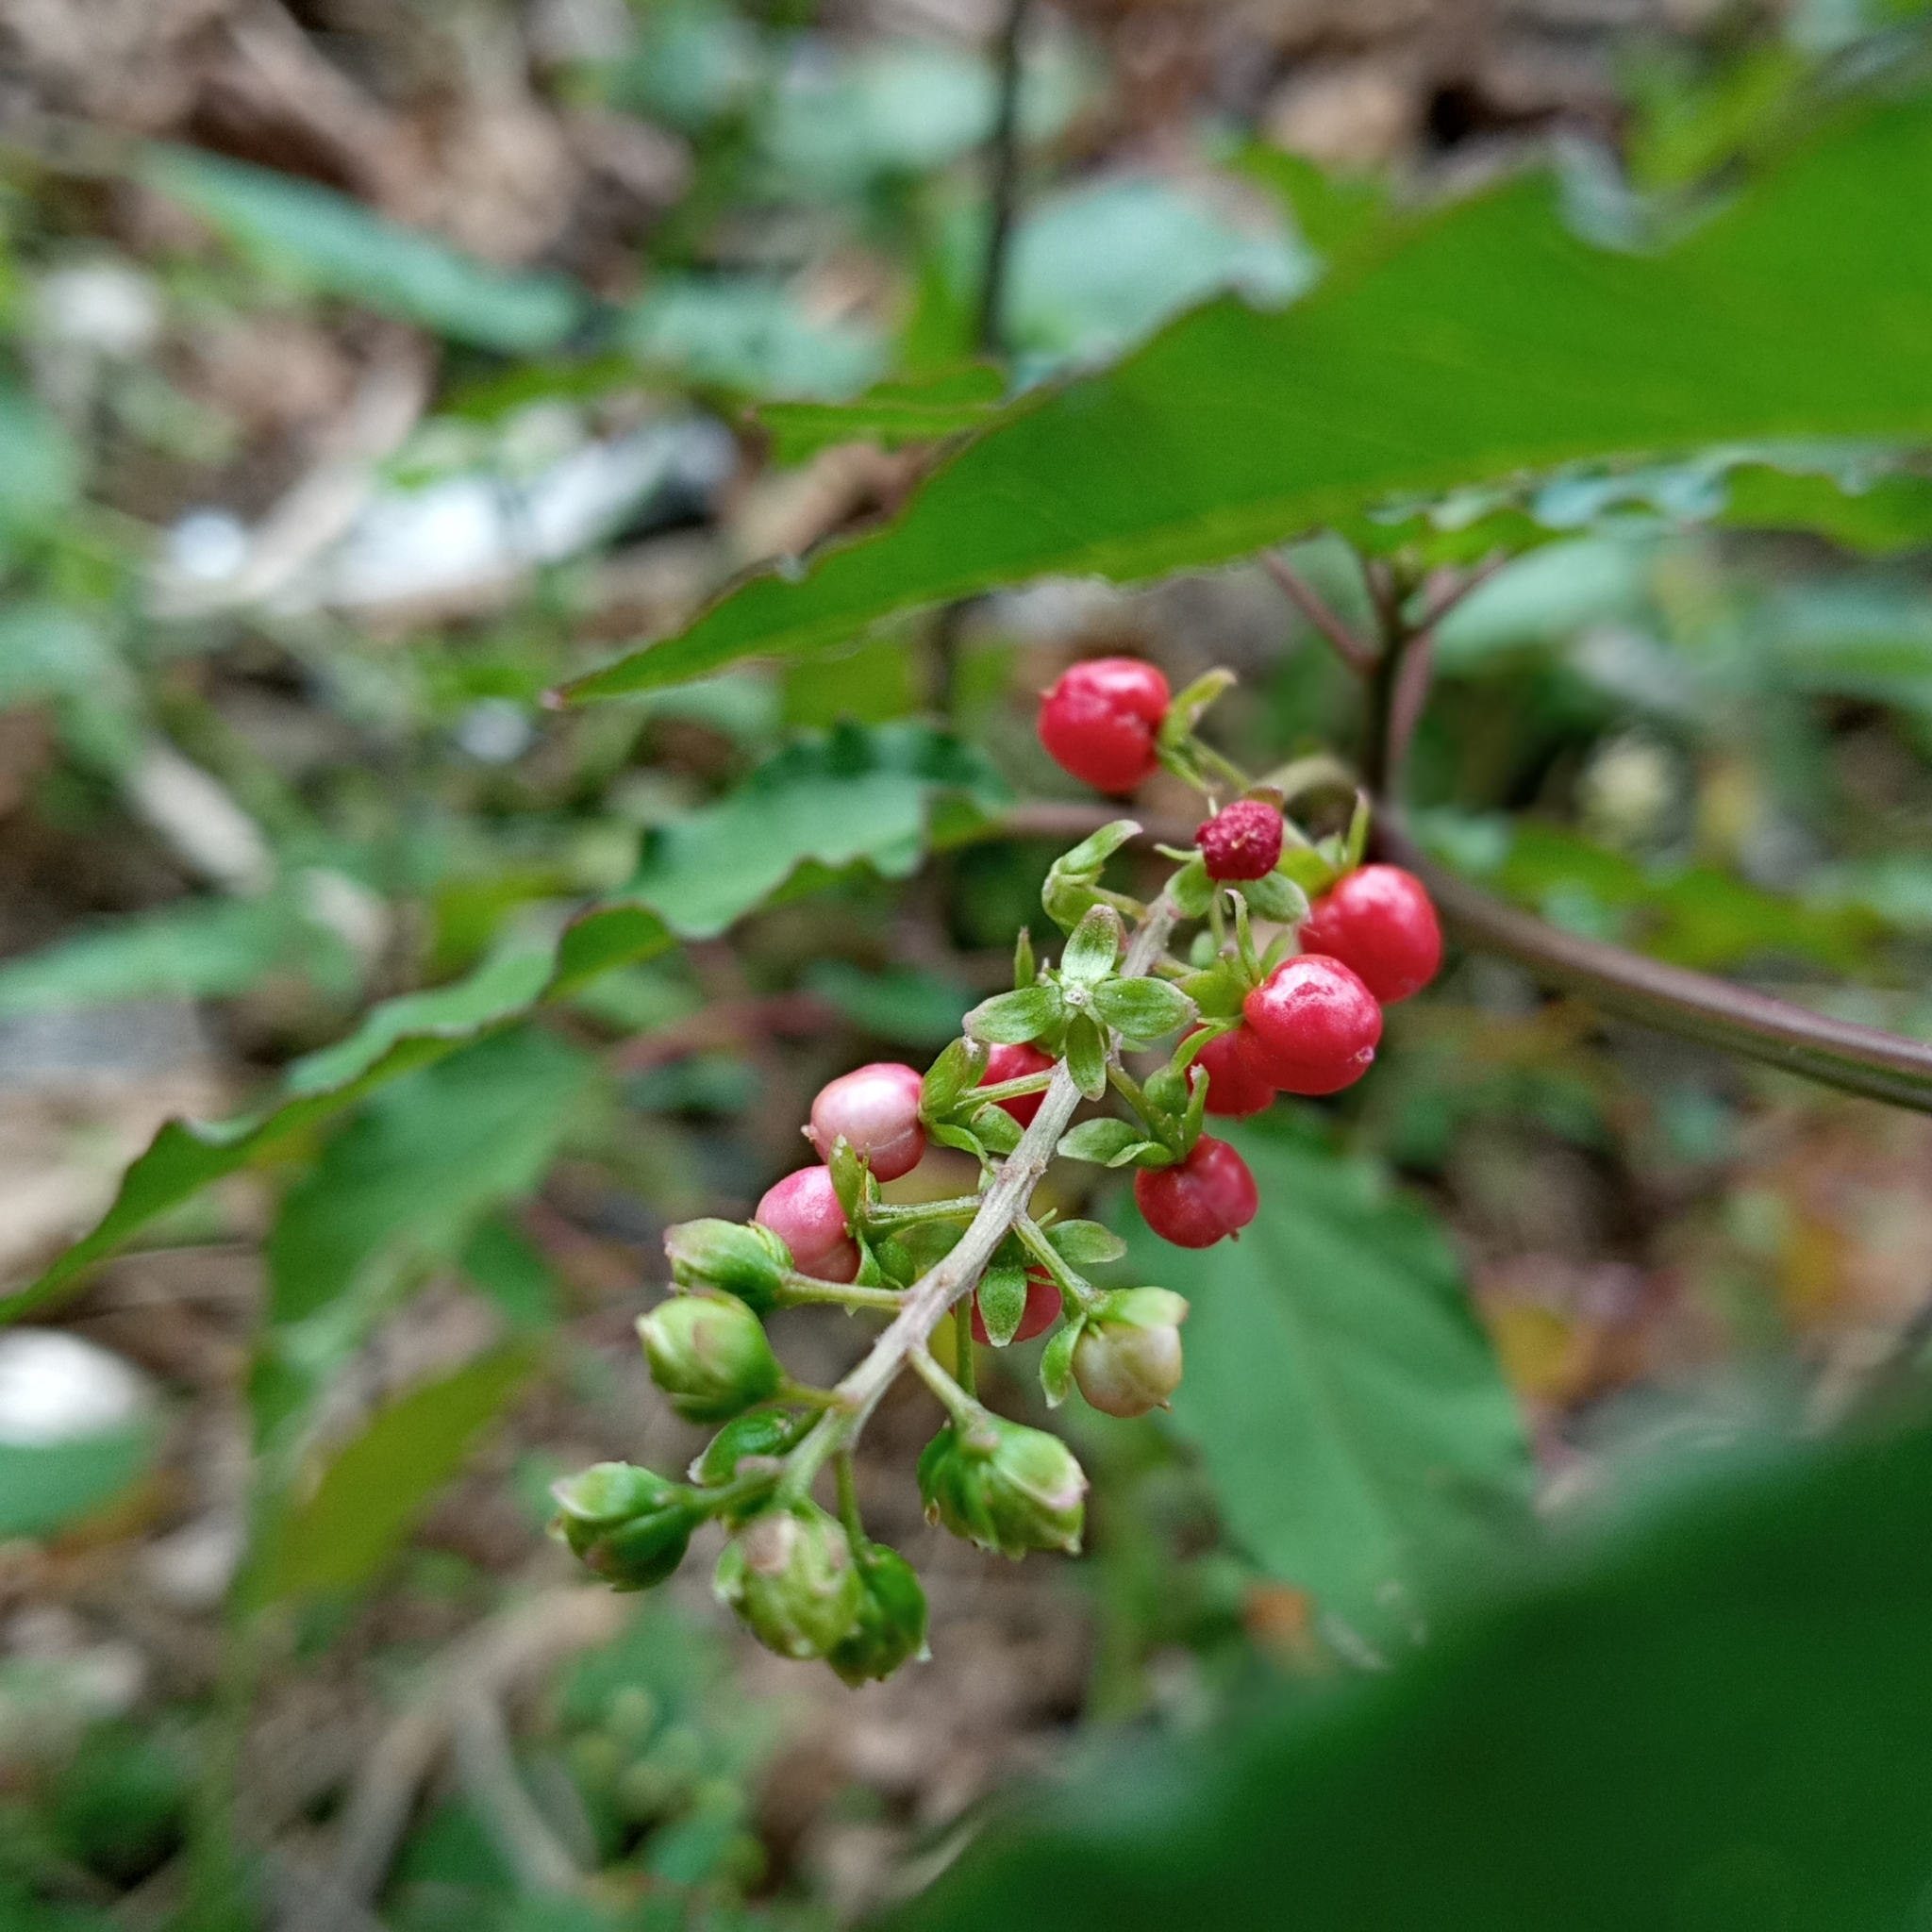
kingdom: Plantae
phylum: Tracheophyta
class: Magnoliopsida
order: Caryophyllales
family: Phytolaccaceae
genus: Rivina
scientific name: Rivina humilis
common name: Rougeplant
